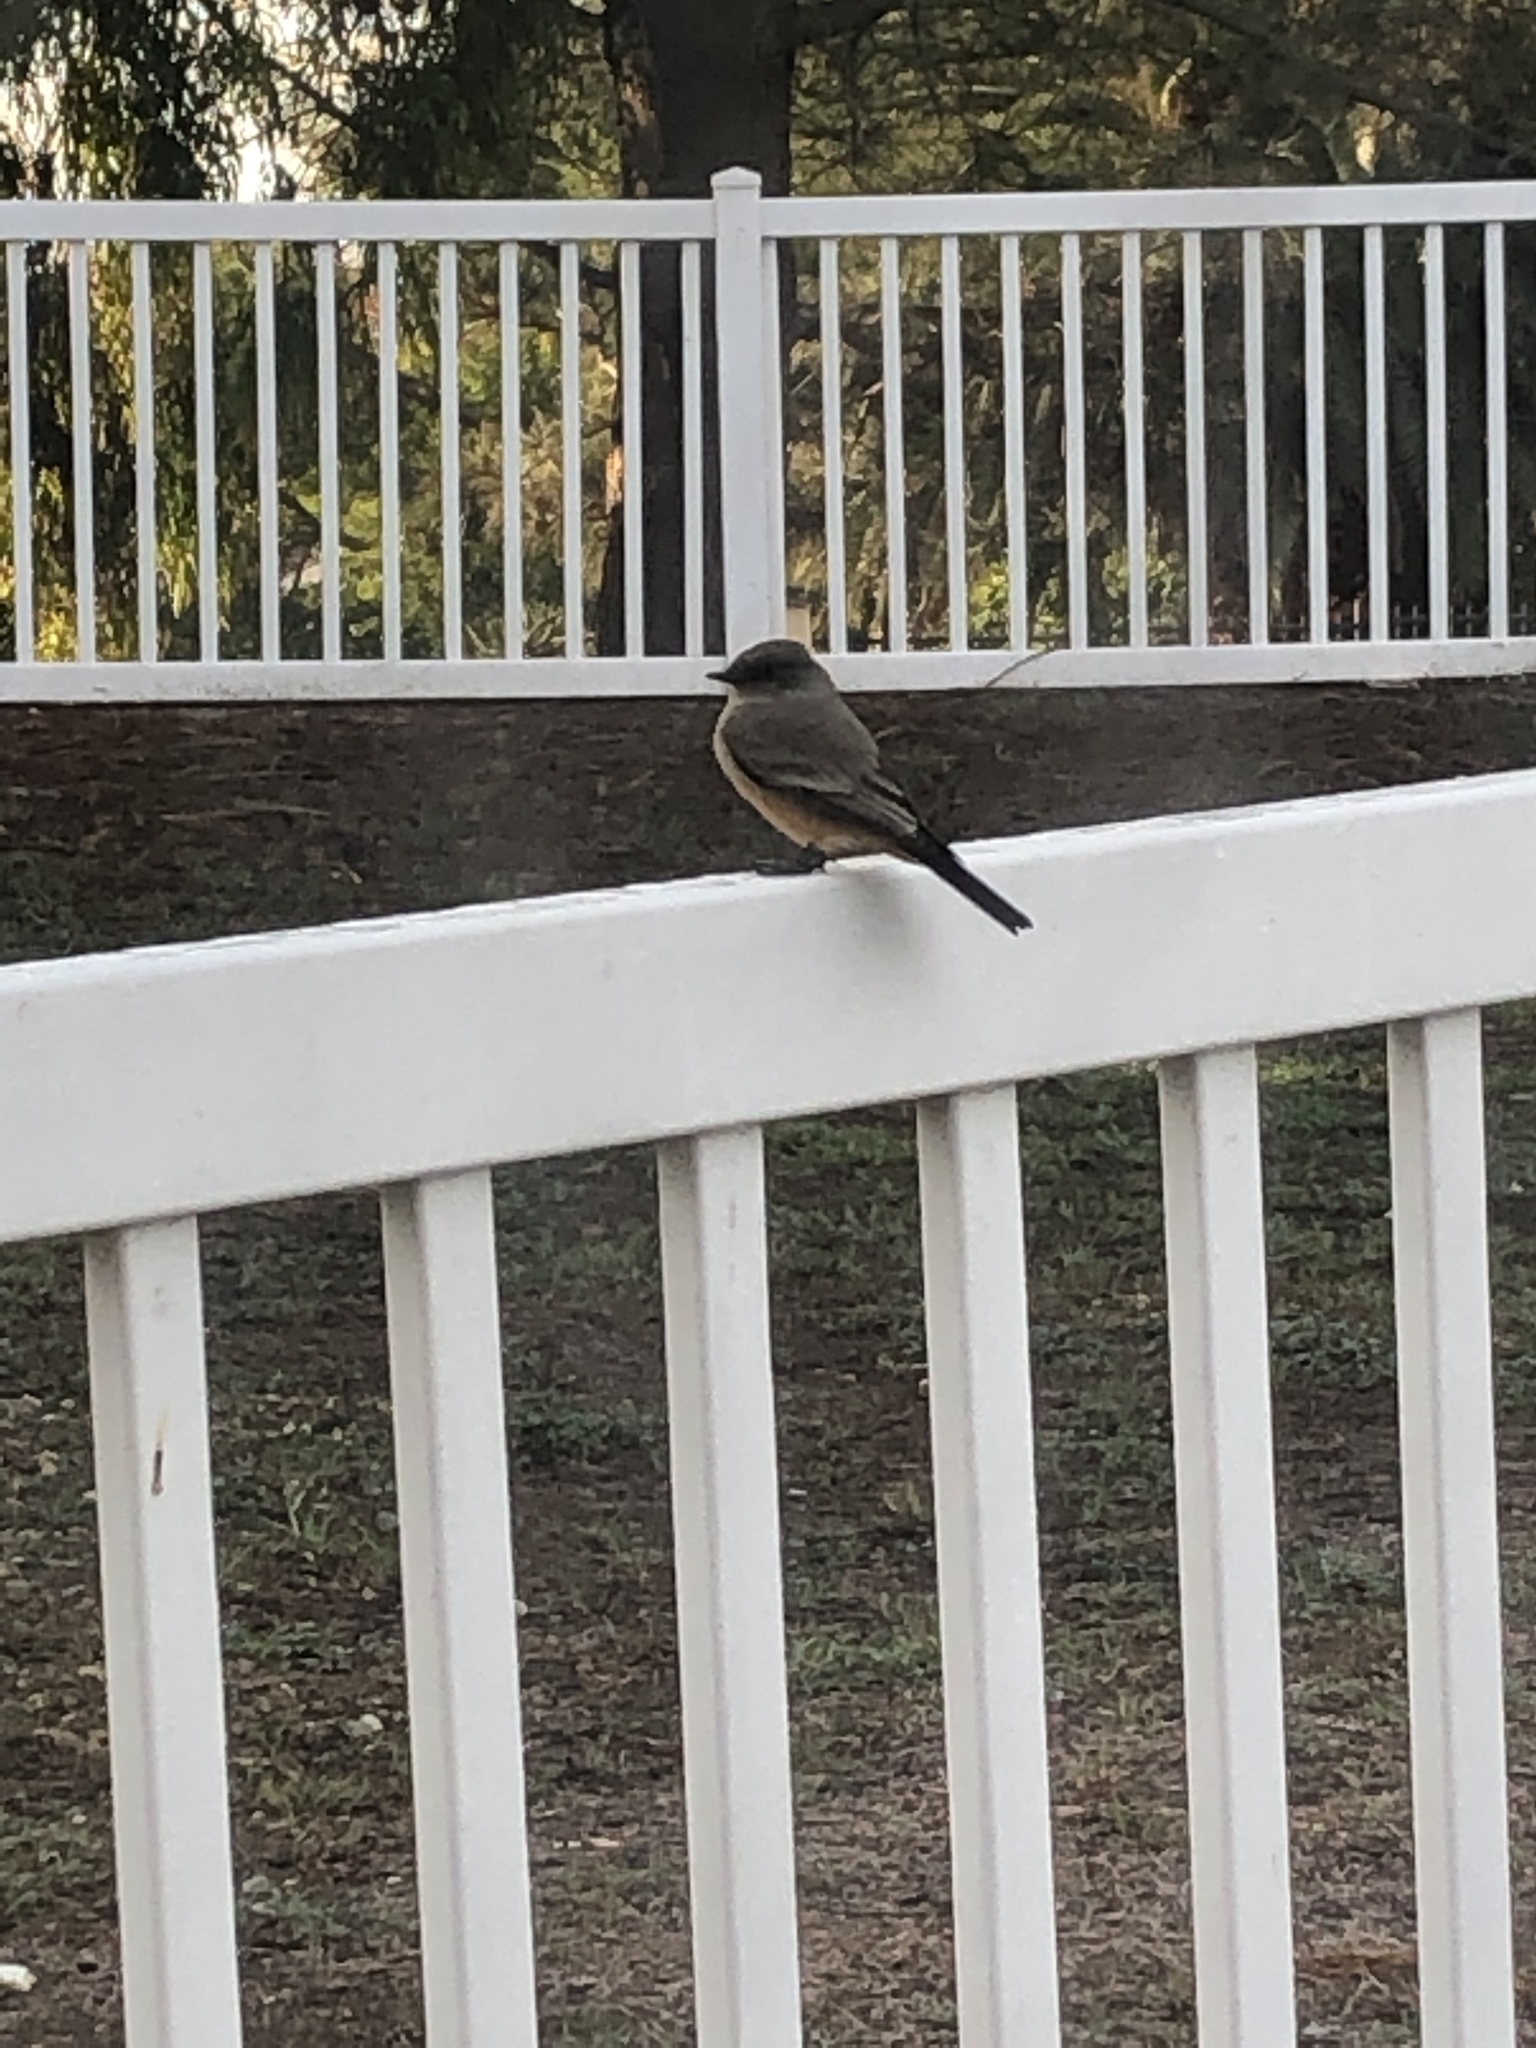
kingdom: Animalia
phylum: Chordata
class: Aves
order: Passeriformes
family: Tyrannidae
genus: Sayornis
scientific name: Sayornis saya
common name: Say's phoebe
